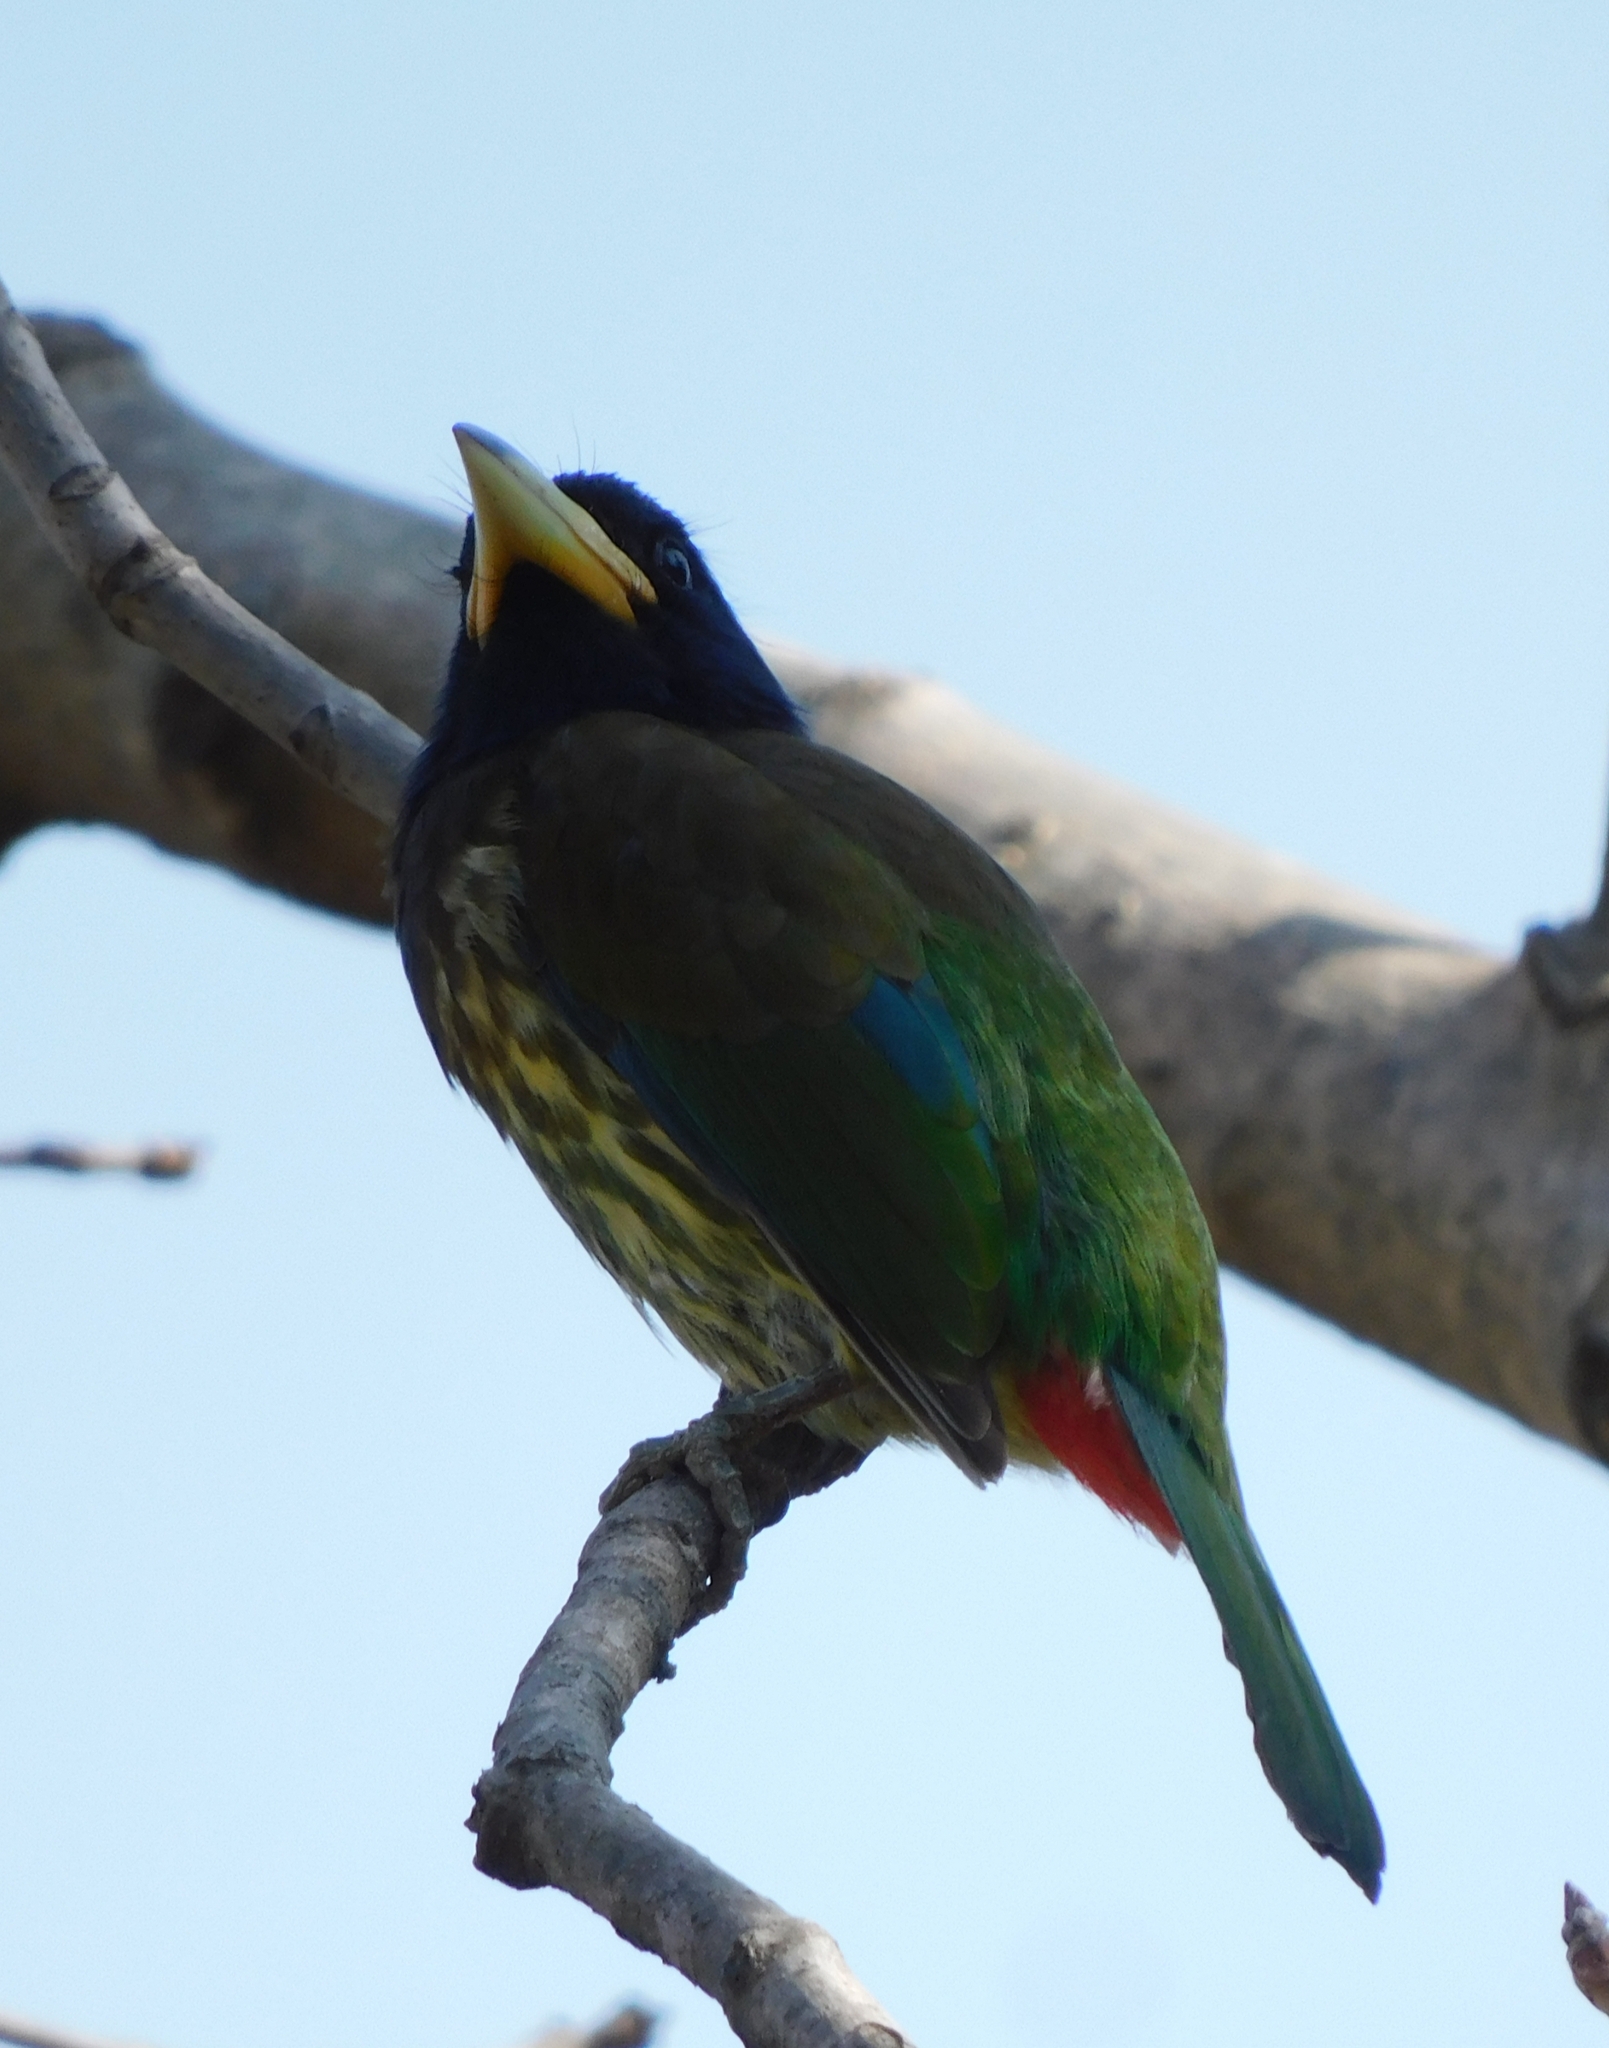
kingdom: Animalia
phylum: Chordata
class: Aves
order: Piciformes
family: Megalaimidae
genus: Psilopogon
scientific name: Psilopogon virens
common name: Great barbet
